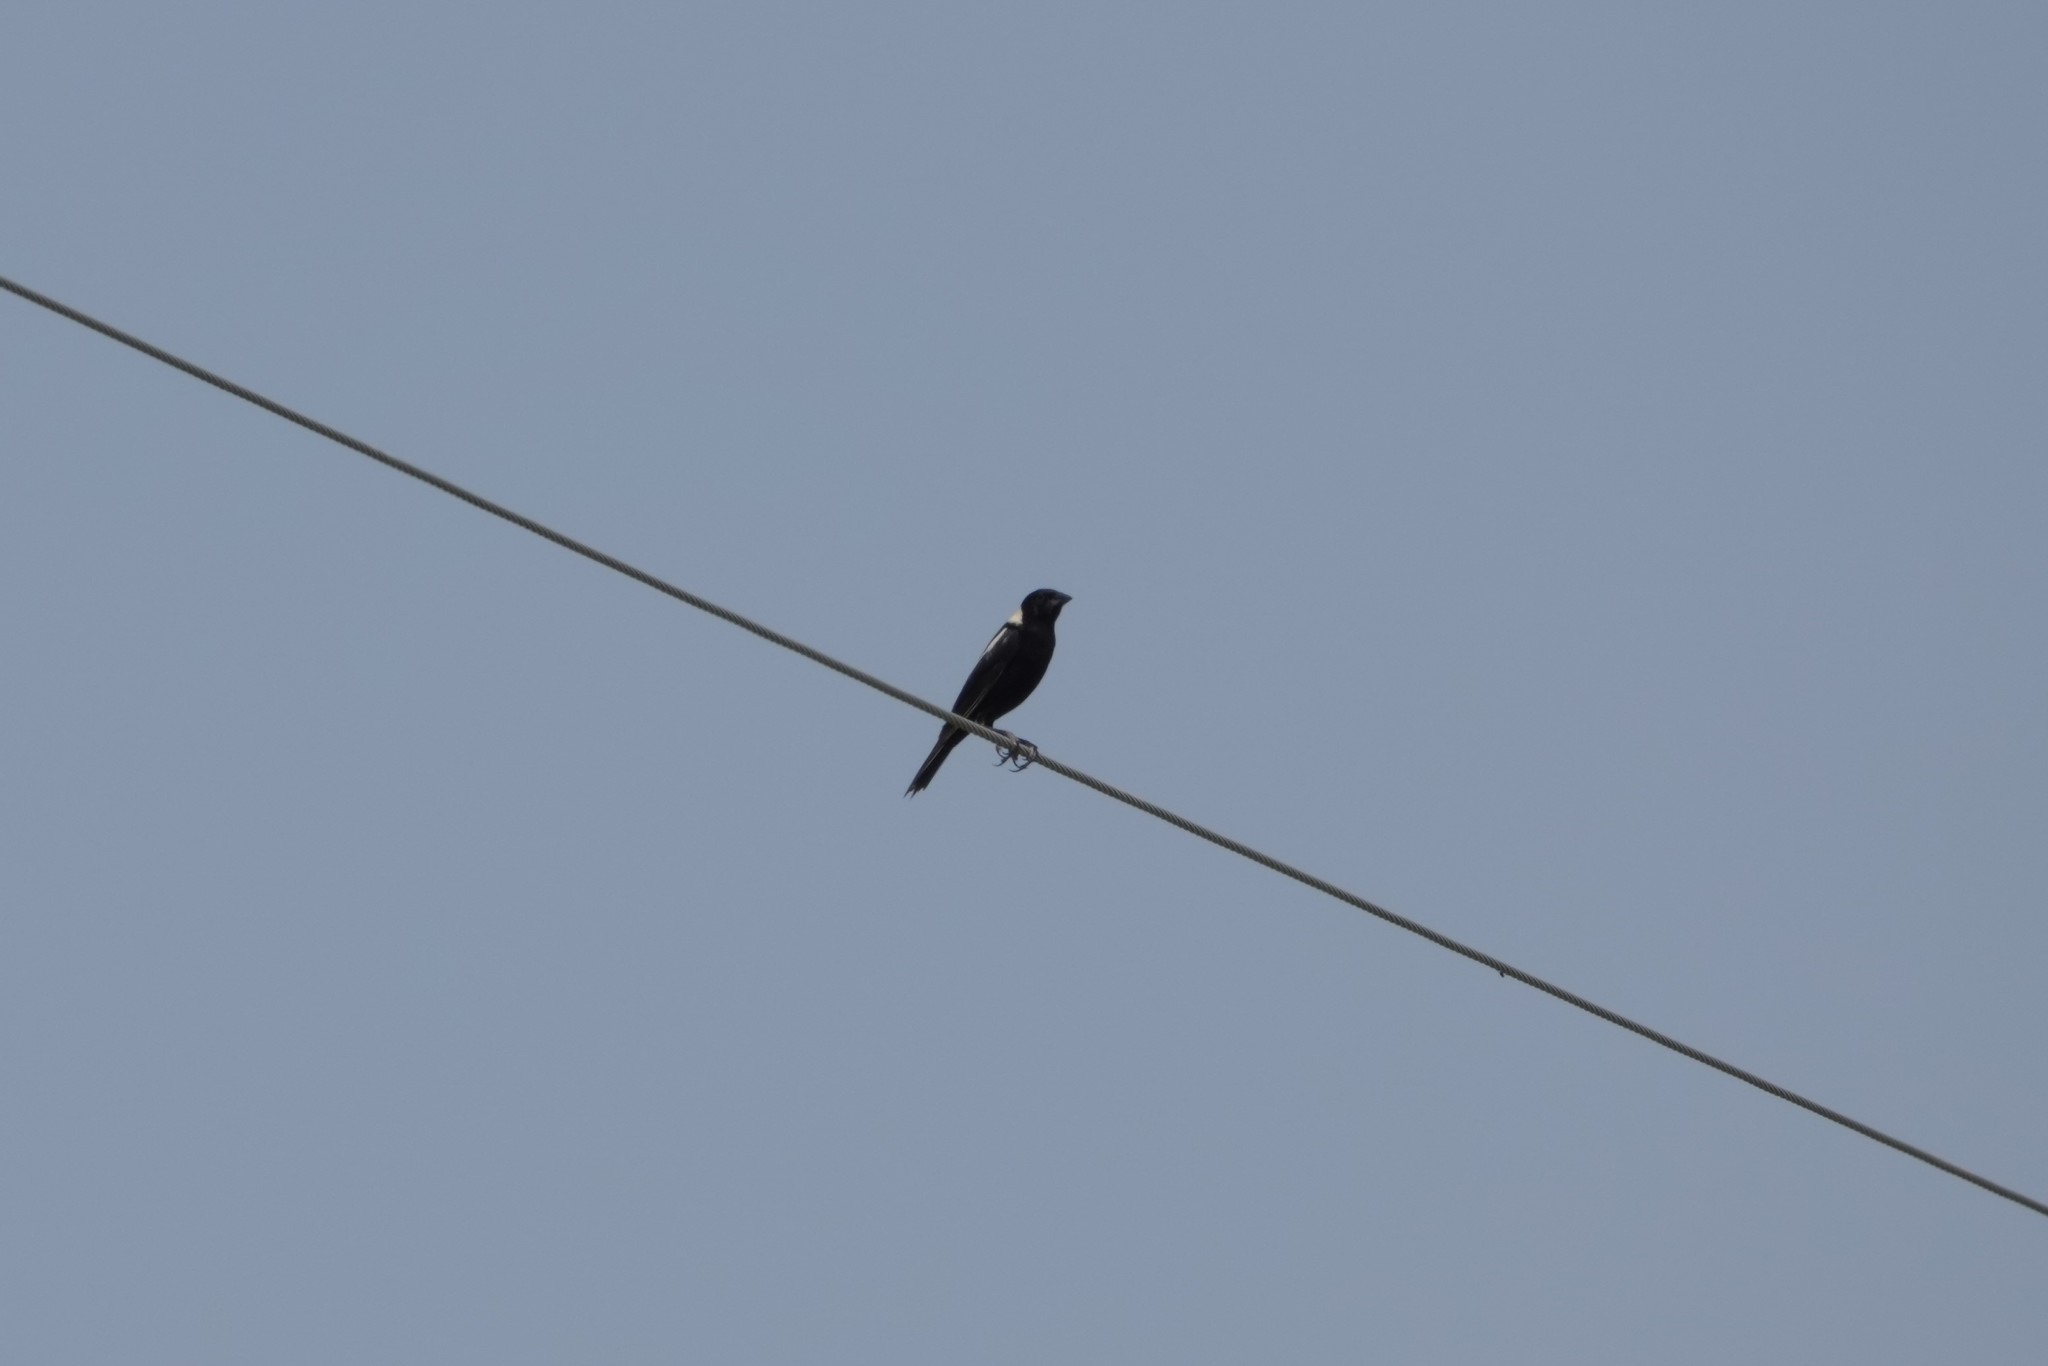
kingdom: Animalia
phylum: Chordata
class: Aves
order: Passeriformes
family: Icteridae
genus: Dolichonyx
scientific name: Dolichonyx oryzivorus
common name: Bobolink
